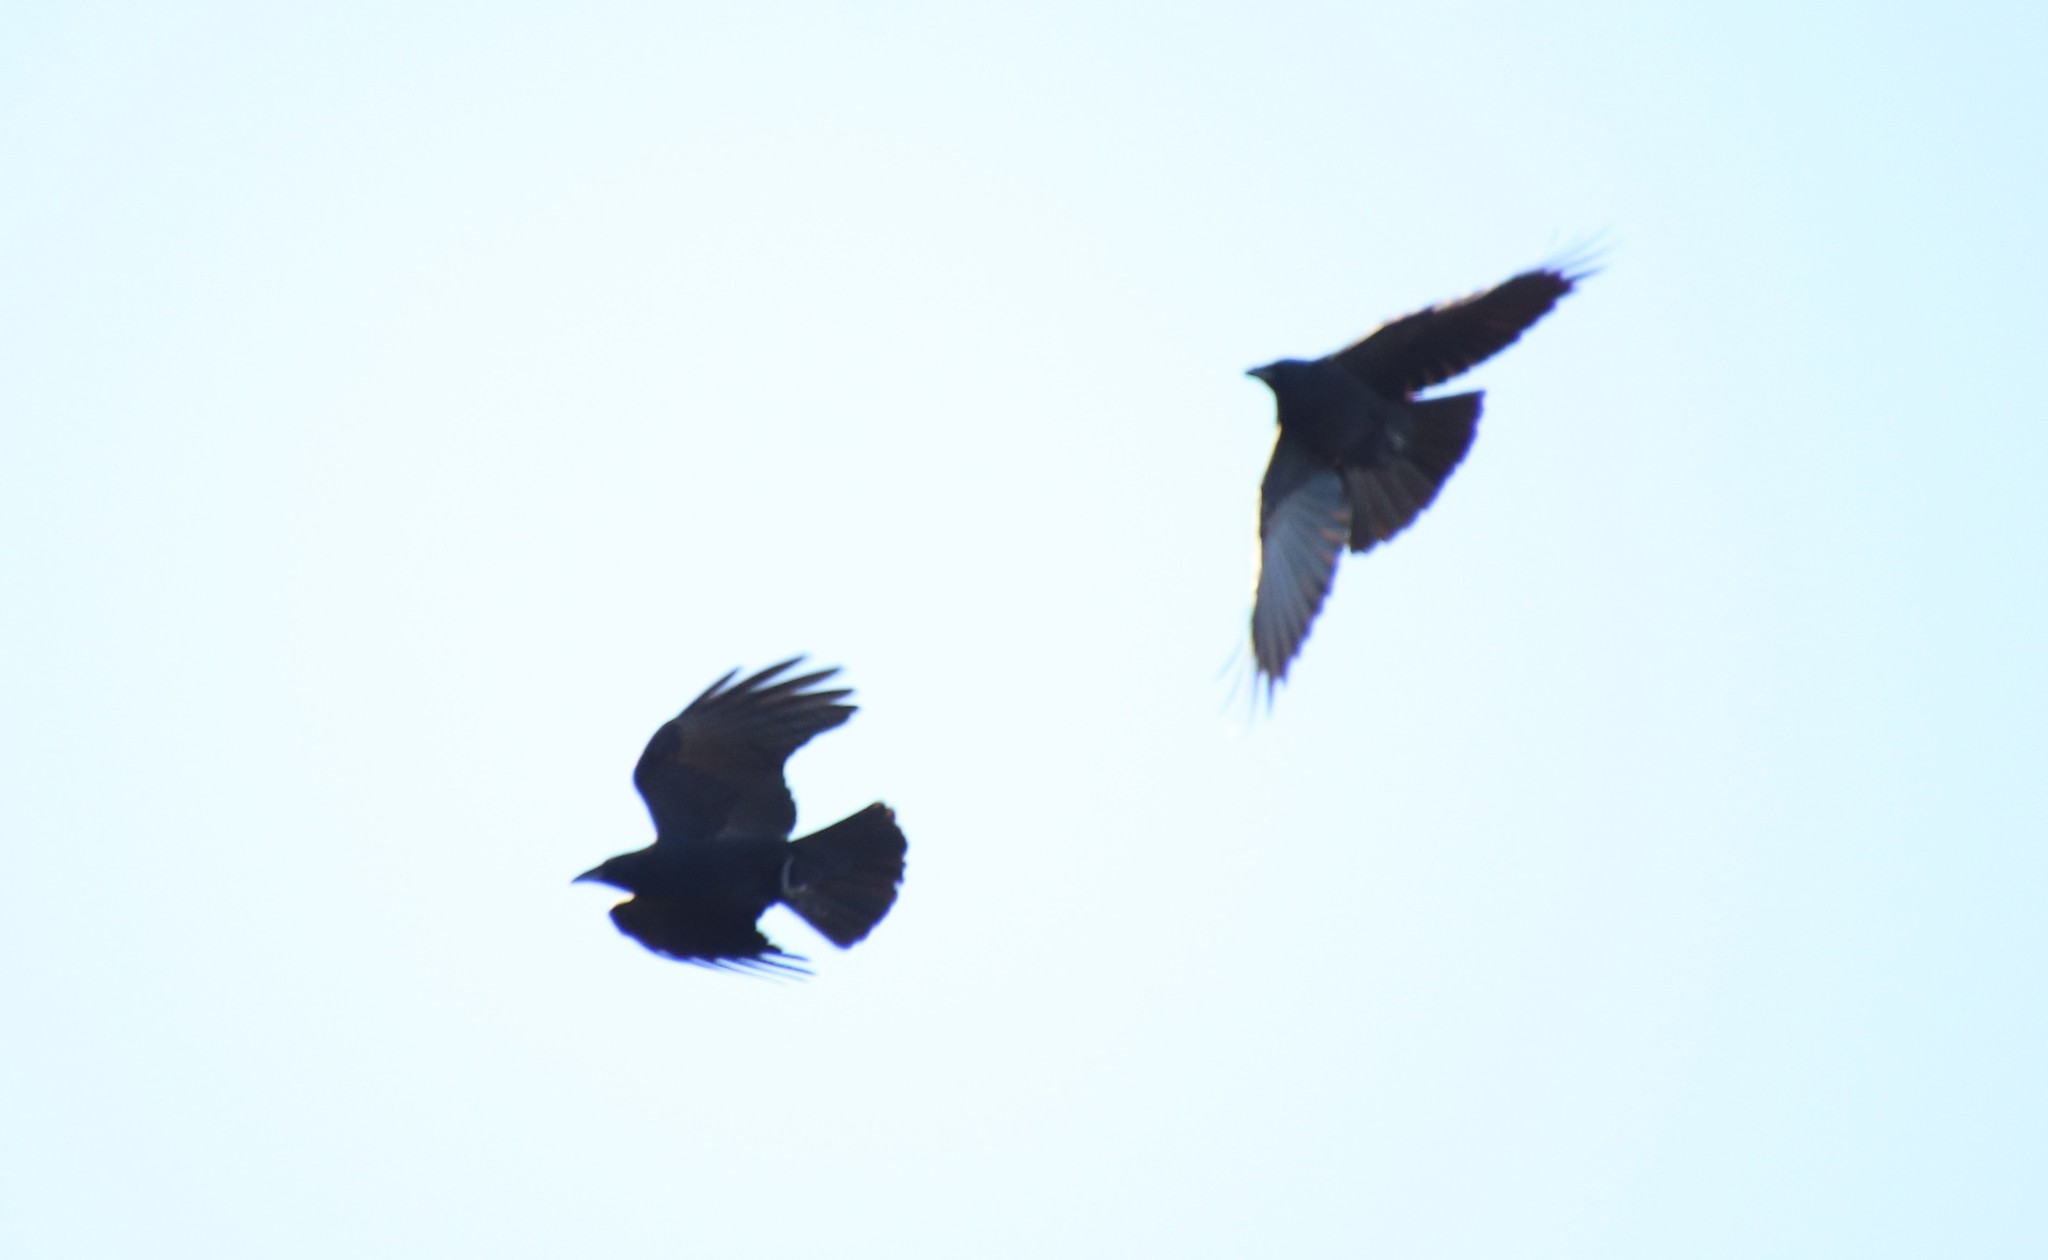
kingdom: Animalia
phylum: Chordata
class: Aves
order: Passeriformes
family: Corvidae
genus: Corvus
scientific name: Corvus brachyrhynchos
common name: American crow
